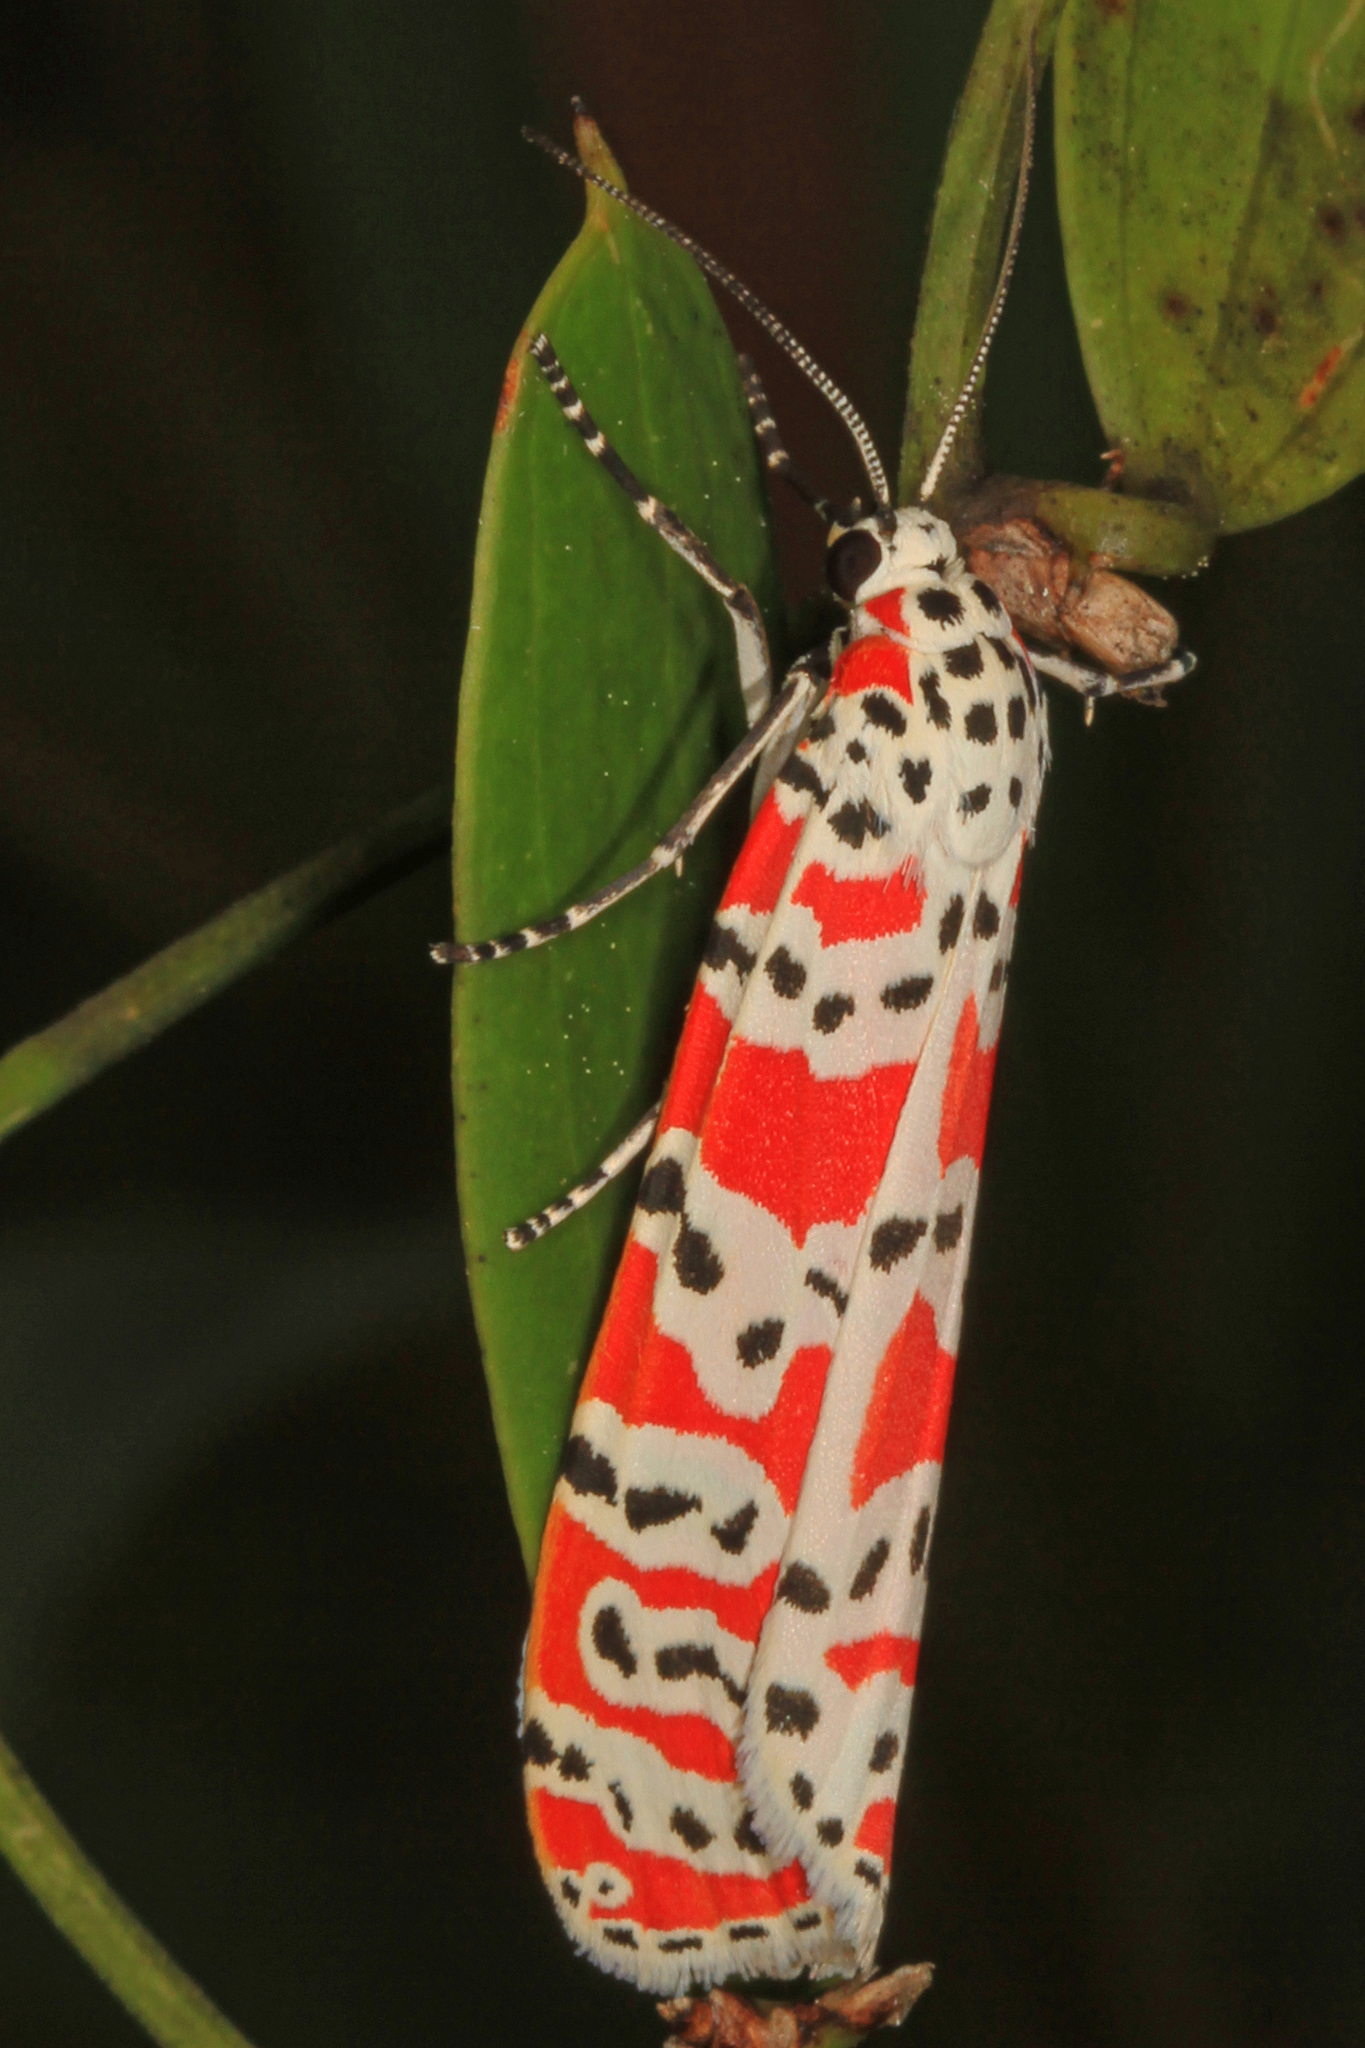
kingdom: Animalia
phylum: Arthropoda
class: Insecta
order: Lepidoptera
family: Erebidae
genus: Utetheisa
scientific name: Utetheisa ornatrix
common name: Beautiful utetheisa
